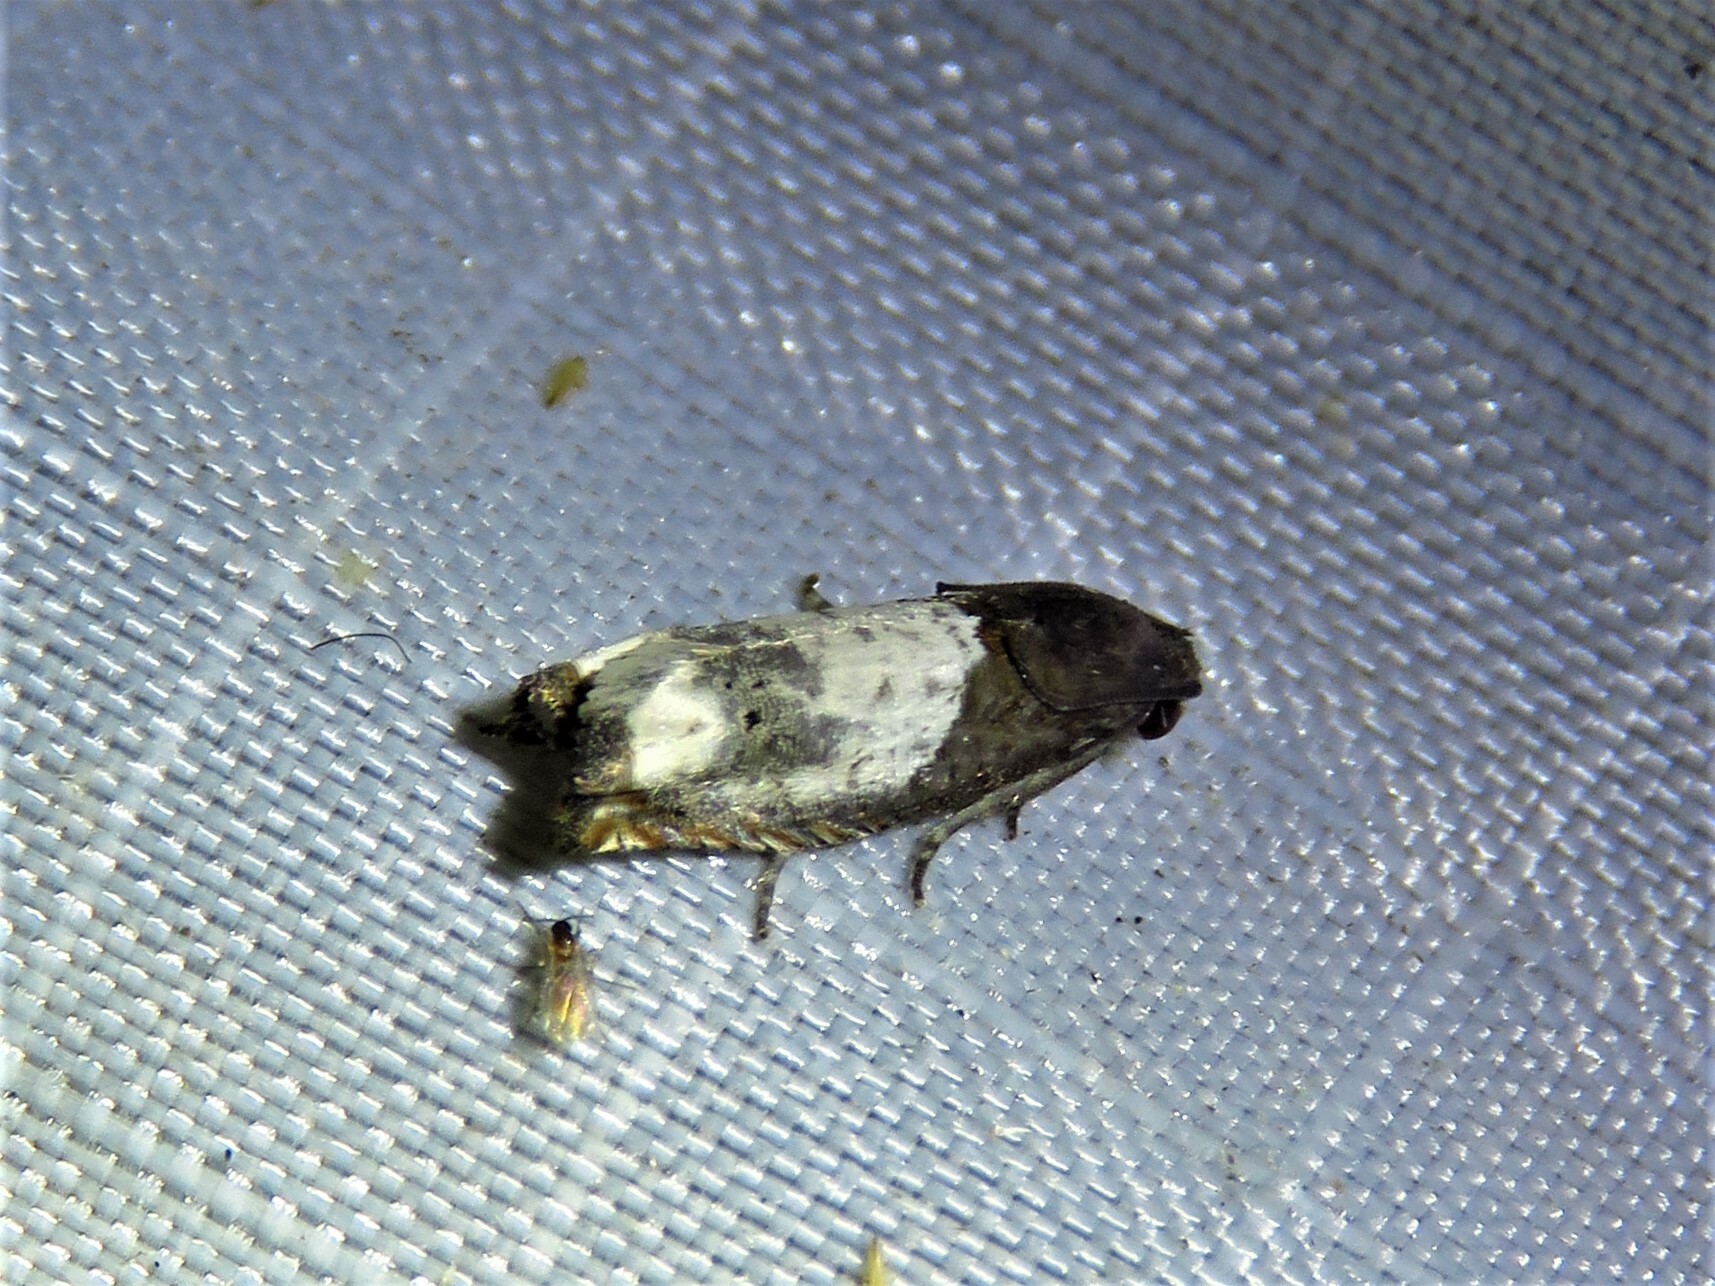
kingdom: Animalia
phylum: Arthropoda
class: Insecta
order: Lepidoptera
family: Tortricidae
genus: Epiblema
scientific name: Epiblema scudderiana
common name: Goldenrod gall moth
